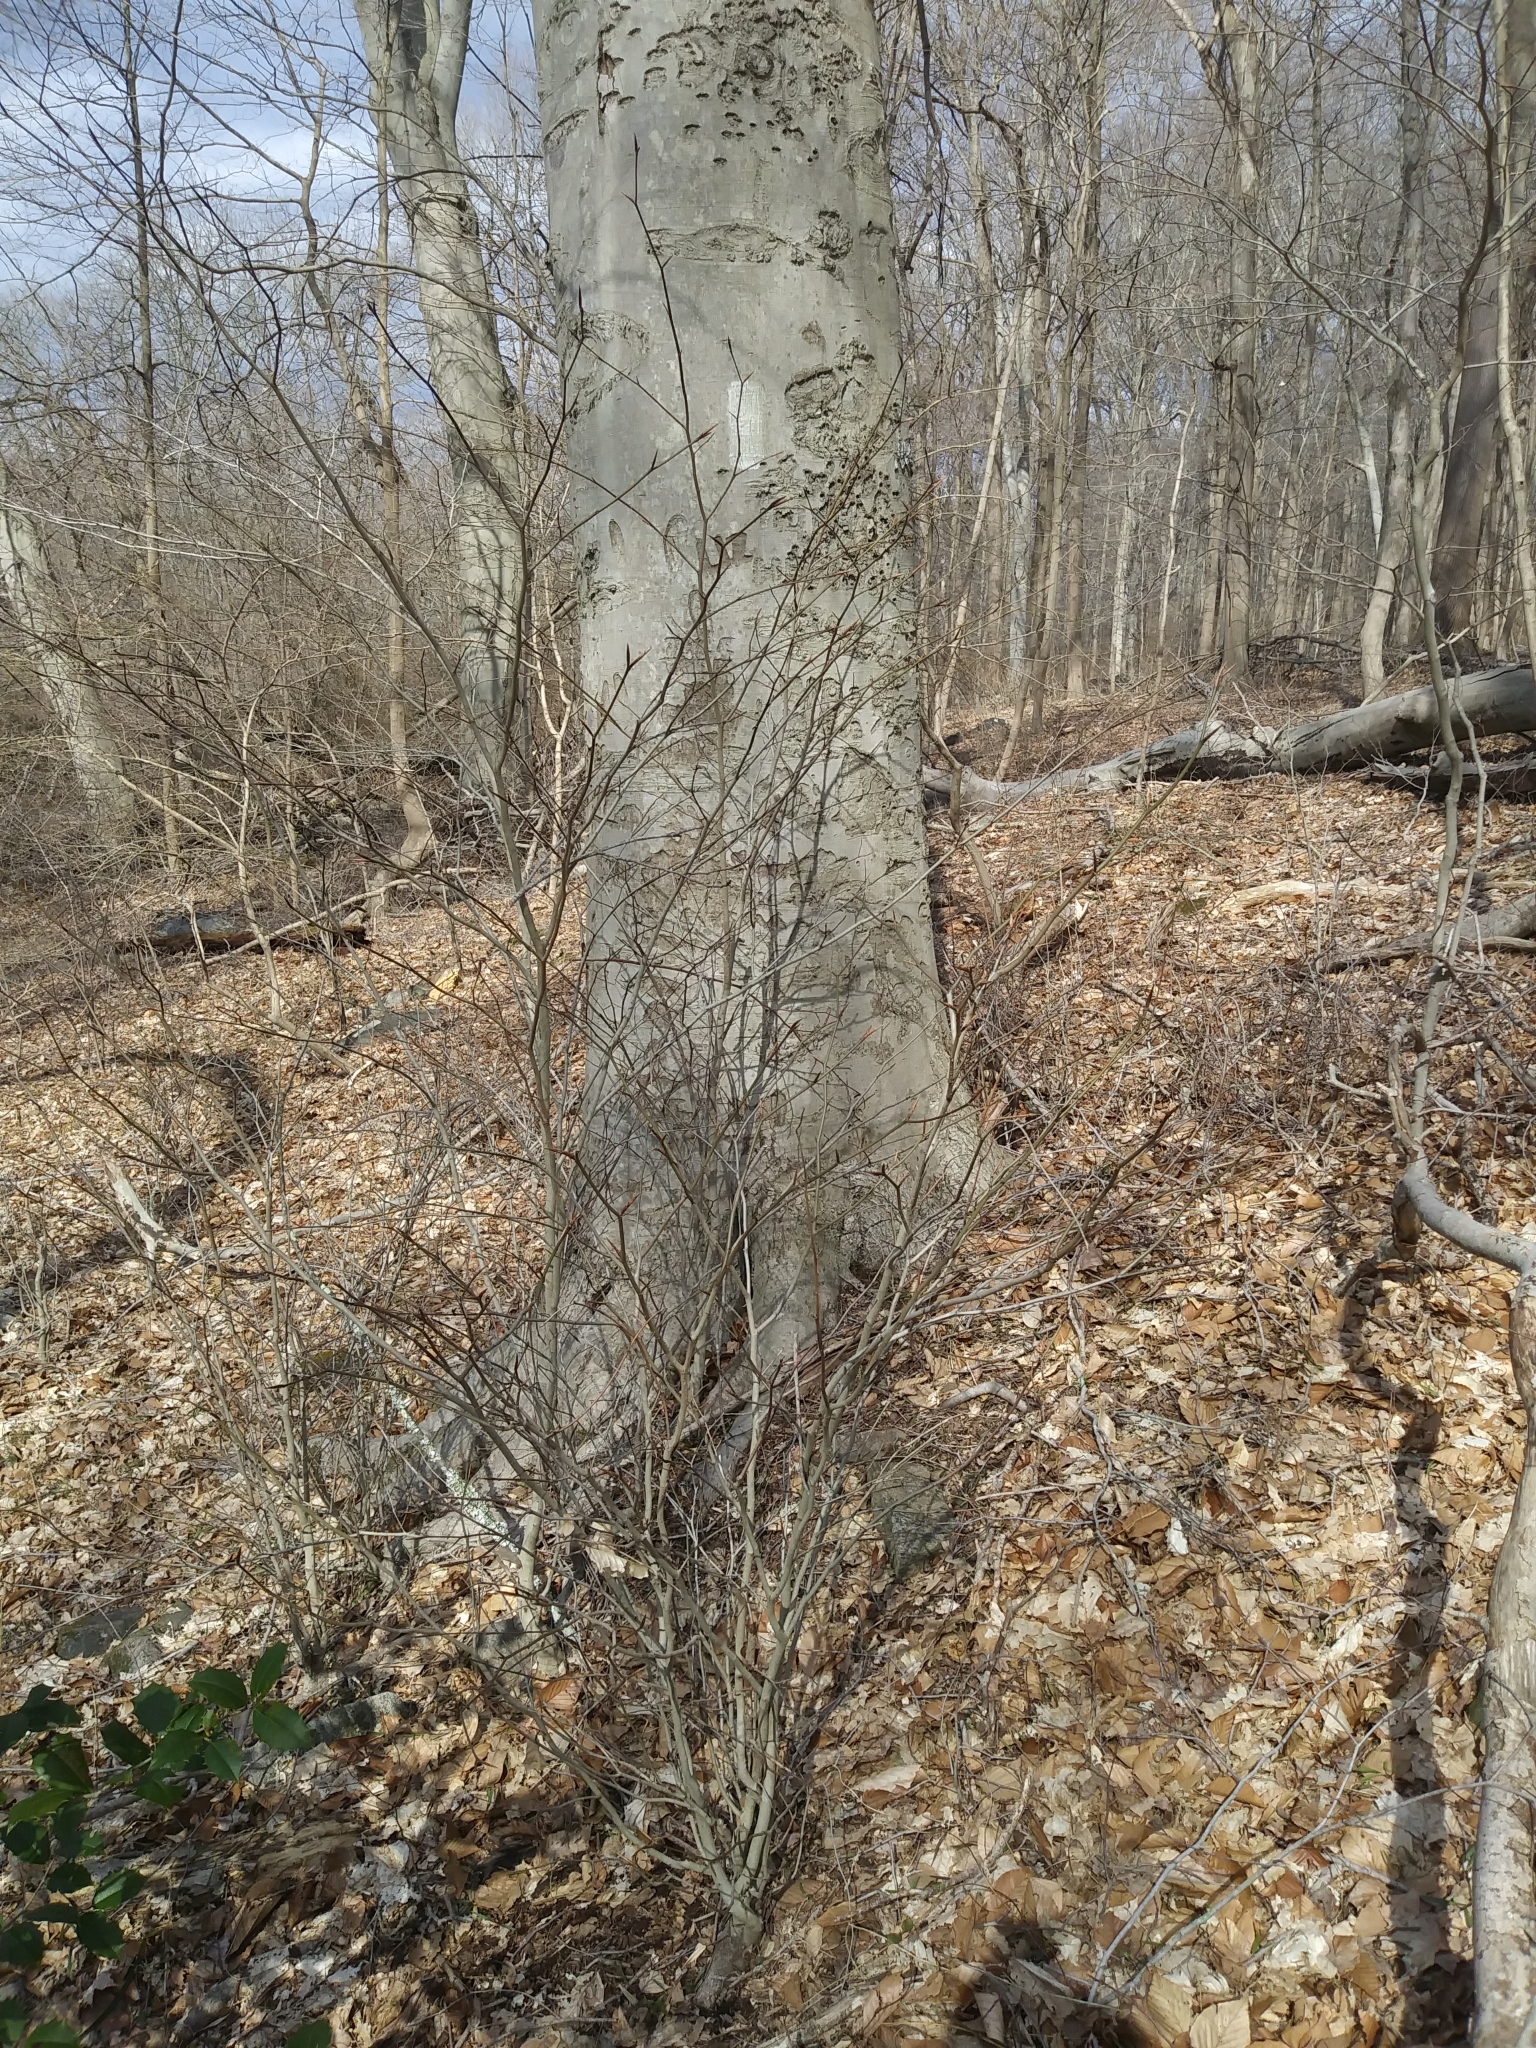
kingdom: Plantae
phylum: Tracheophyta
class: Magnoliopsida
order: Fagales
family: Fagaceae
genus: Fagus
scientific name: Fagus grandifolia
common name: American beech
